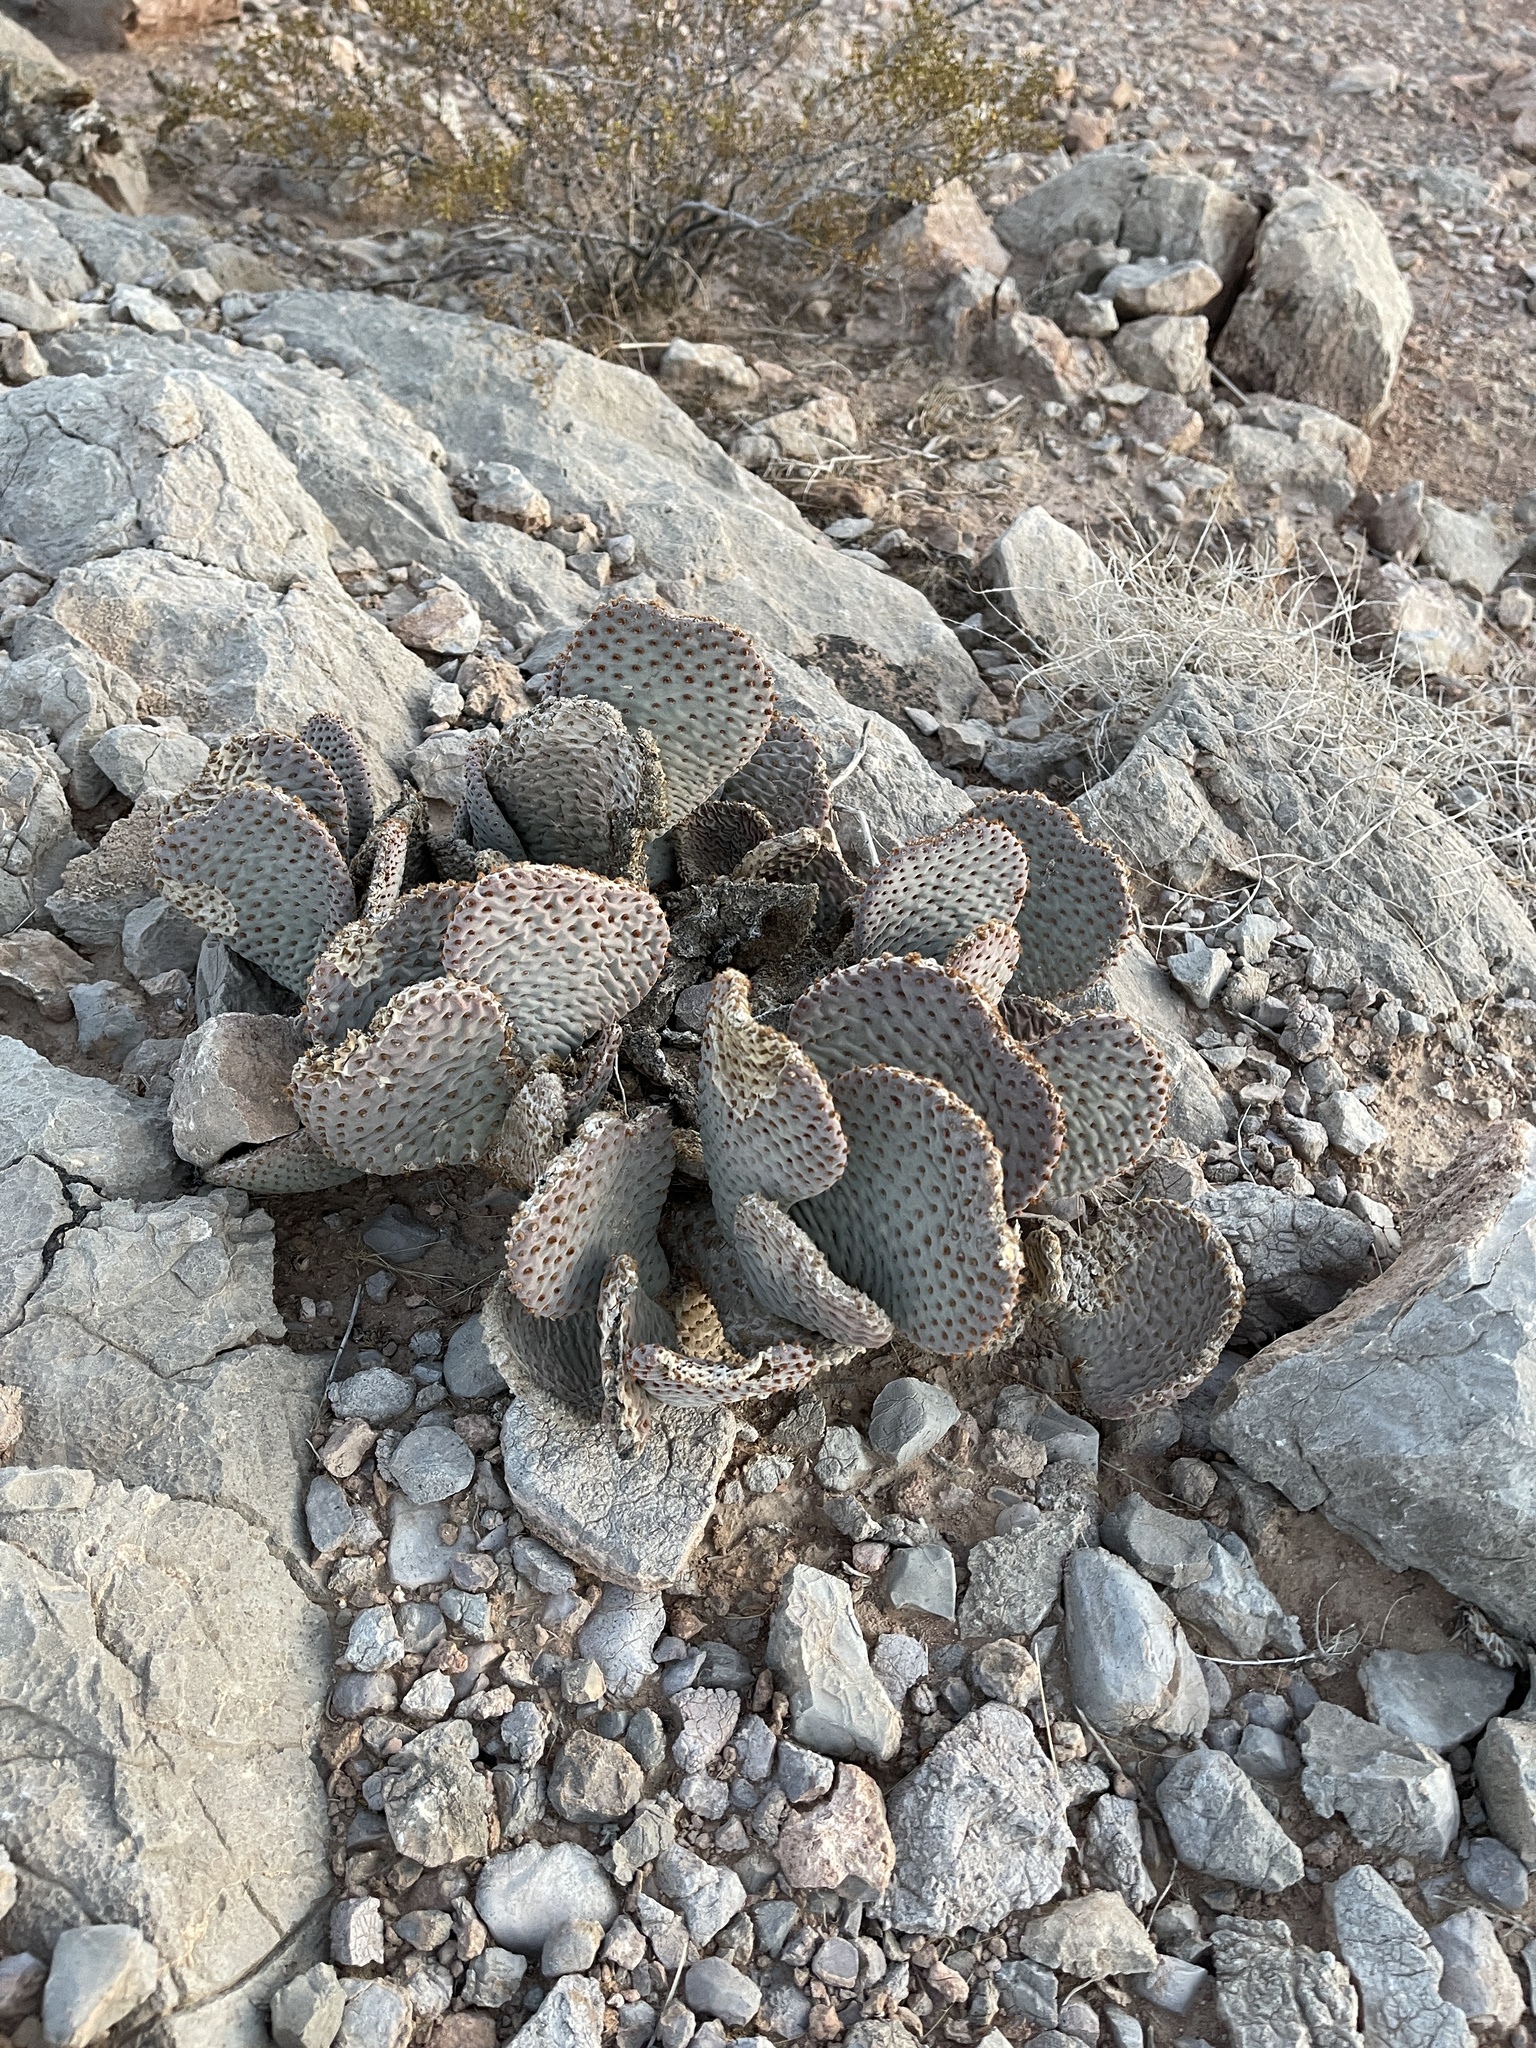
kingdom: Plantae
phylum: Tracheophyta
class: Magnoliopsida
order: Caryophyllales
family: Cactaceae
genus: Opuntia
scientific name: Opuntia basilaris
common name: Beavertail prickly-pear
